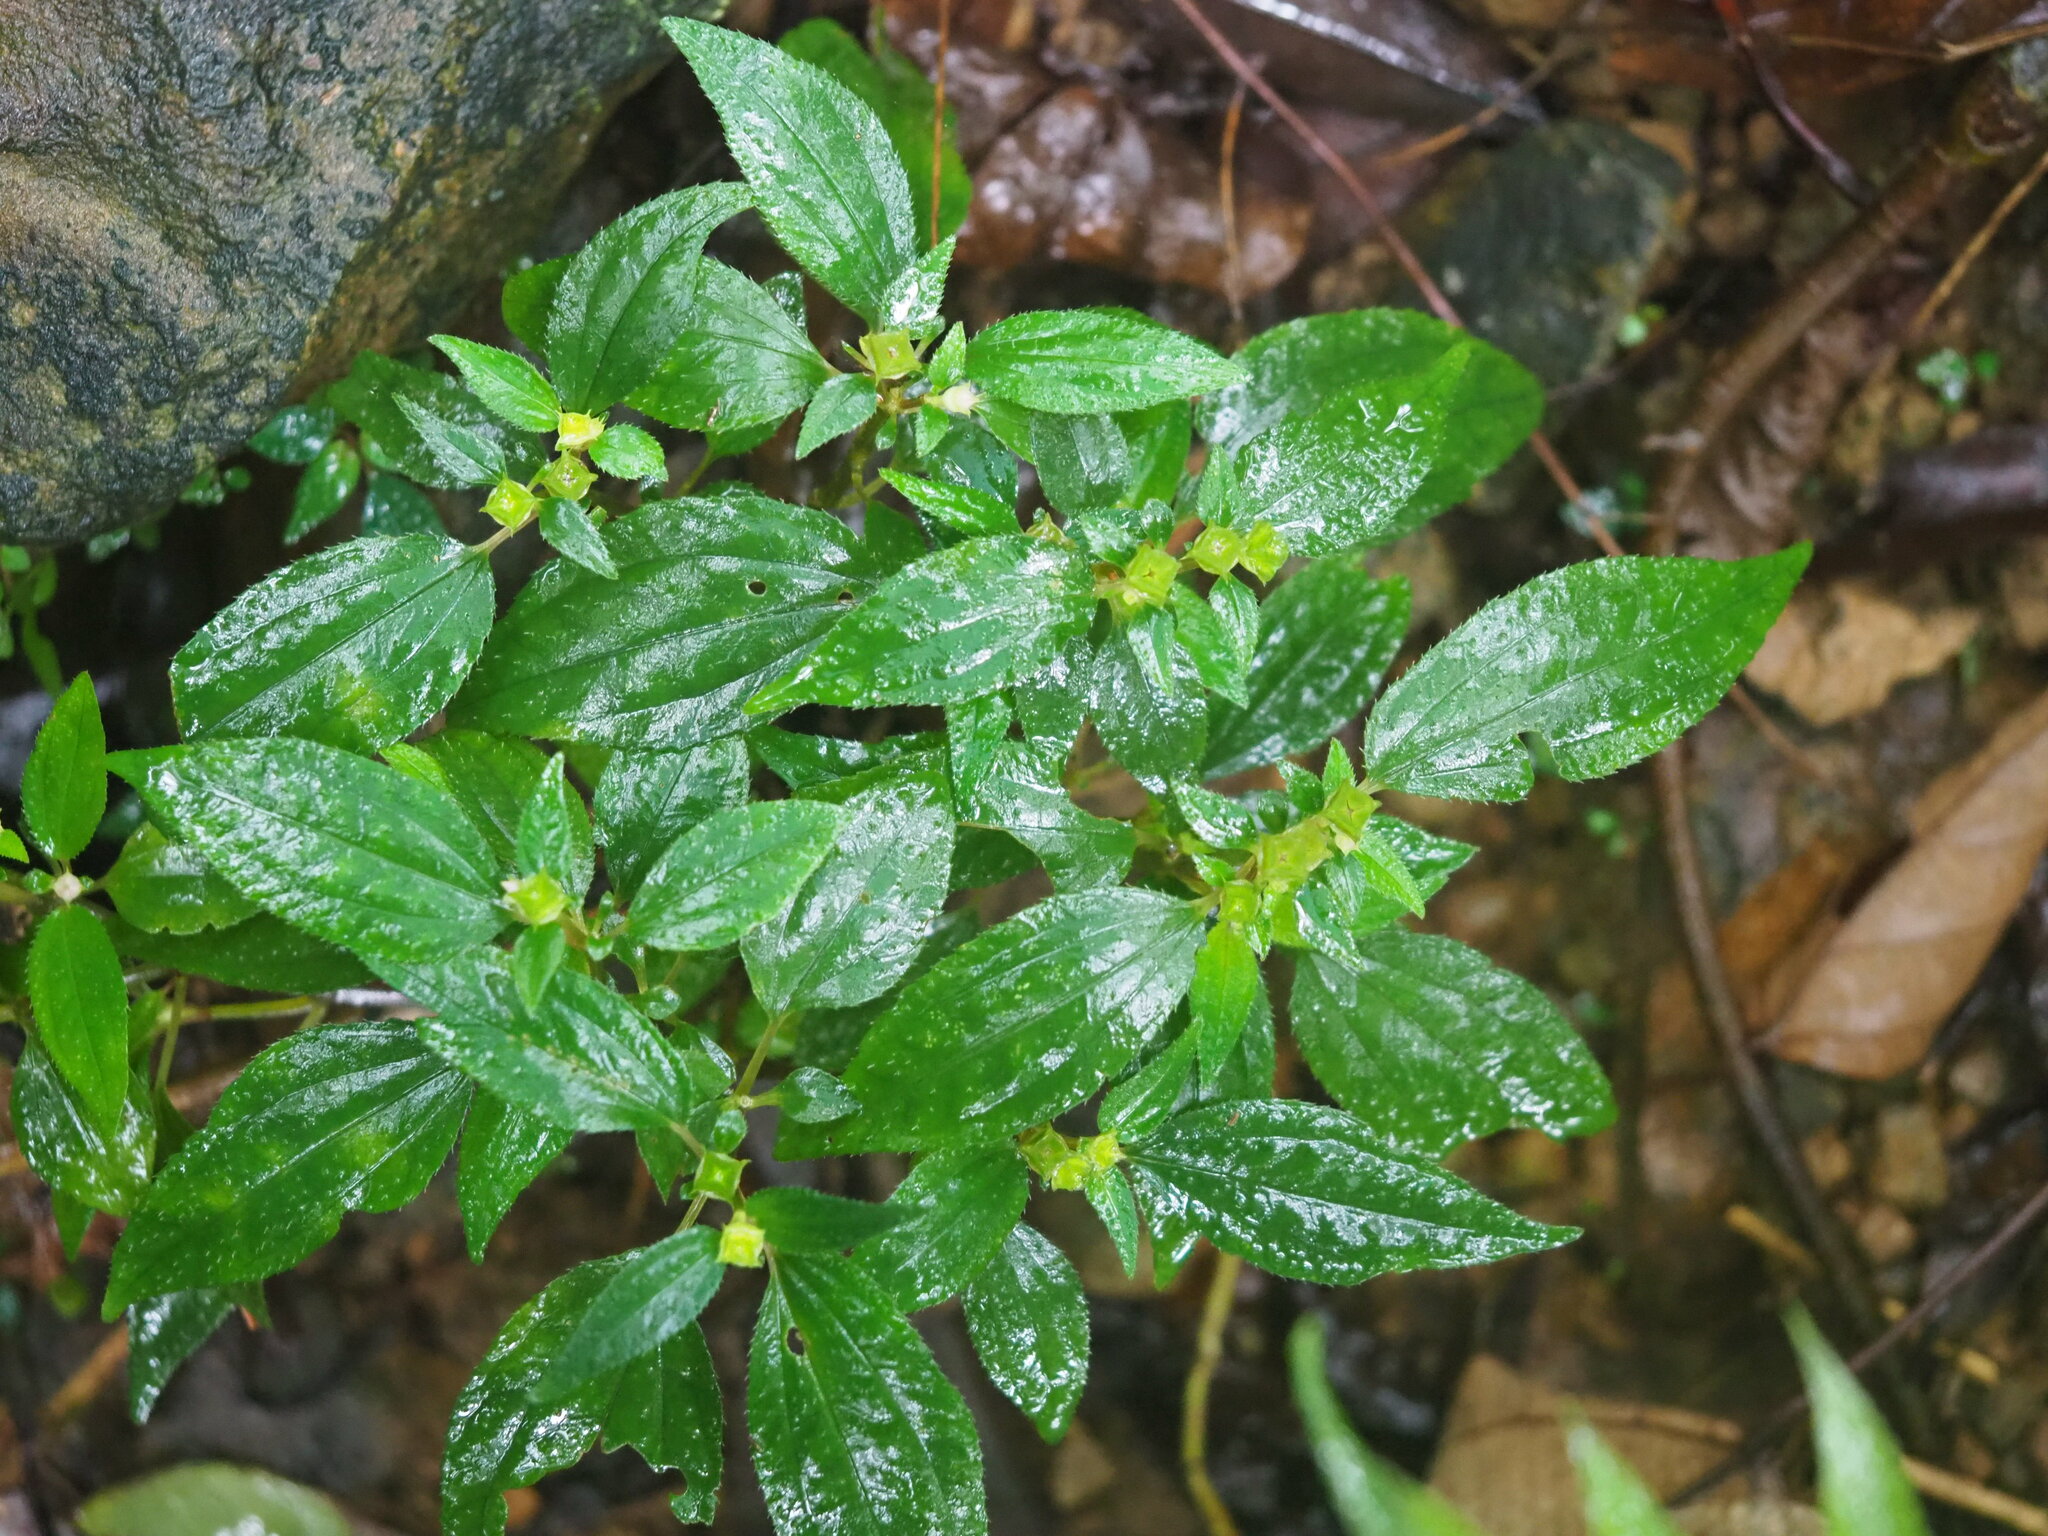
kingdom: Plantae
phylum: Tracheophyta
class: Magnoliopsida
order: Myrtales
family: Melastomataceae
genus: Sarcopyramis
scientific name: Sarcopyramis napalensis
